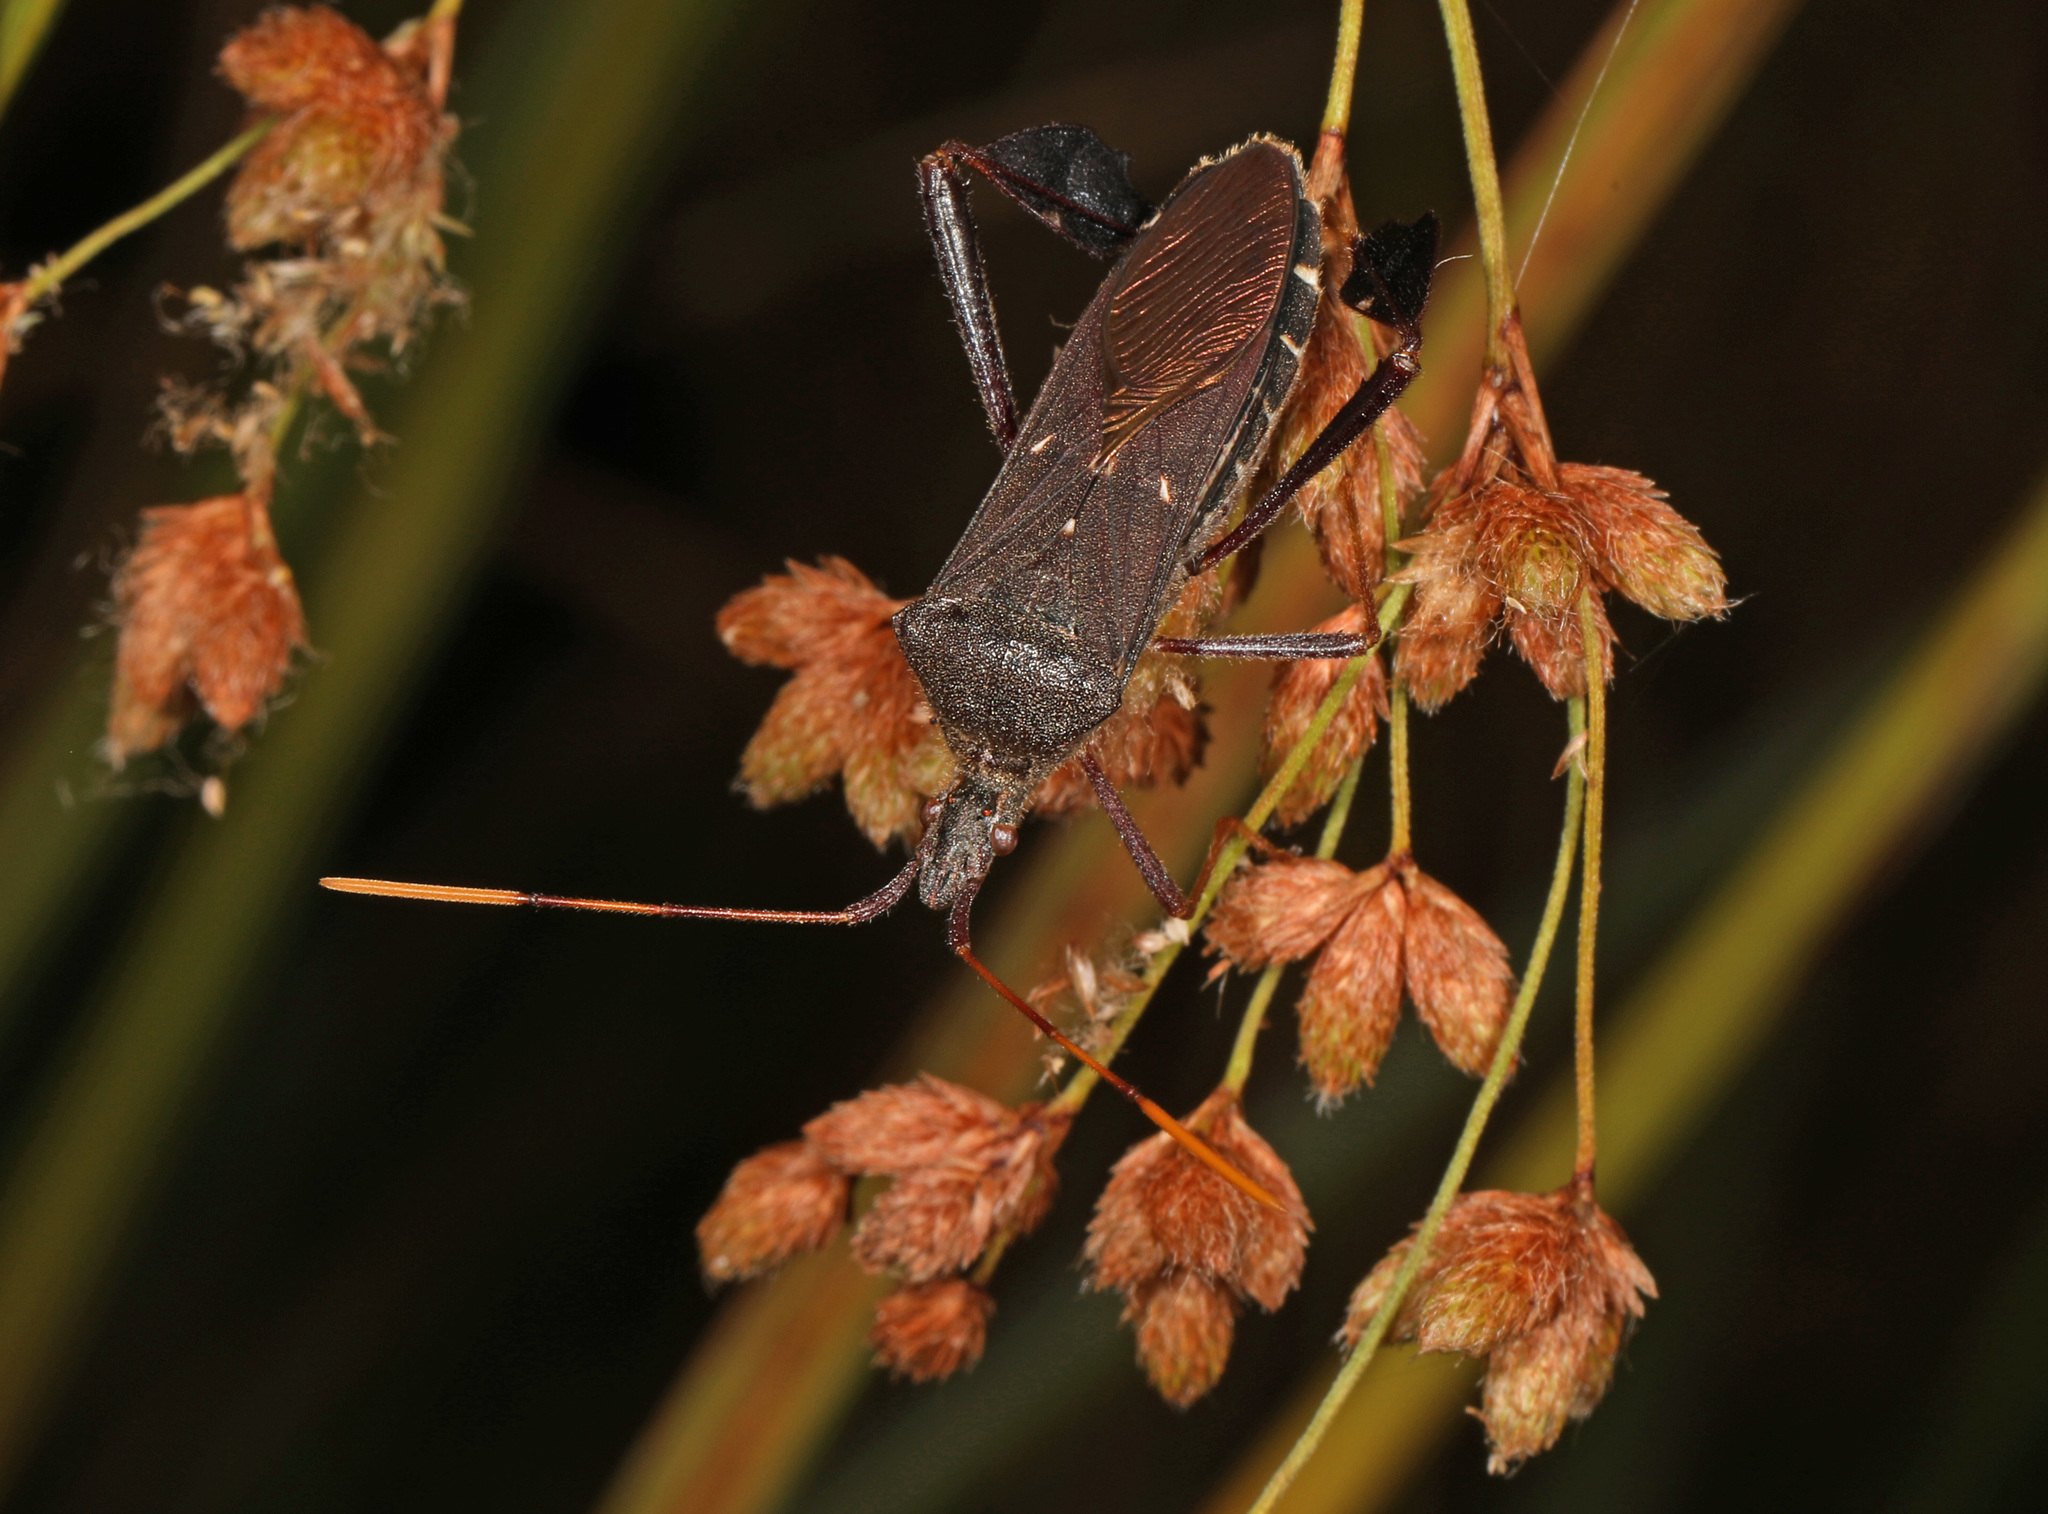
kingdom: Animalia
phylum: Arthropoda
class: Insecta
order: Hemiptera
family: Coreidae
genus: Leptoglossus
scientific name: Leptoglossus oppositus
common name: Northern leaf-footed bug
